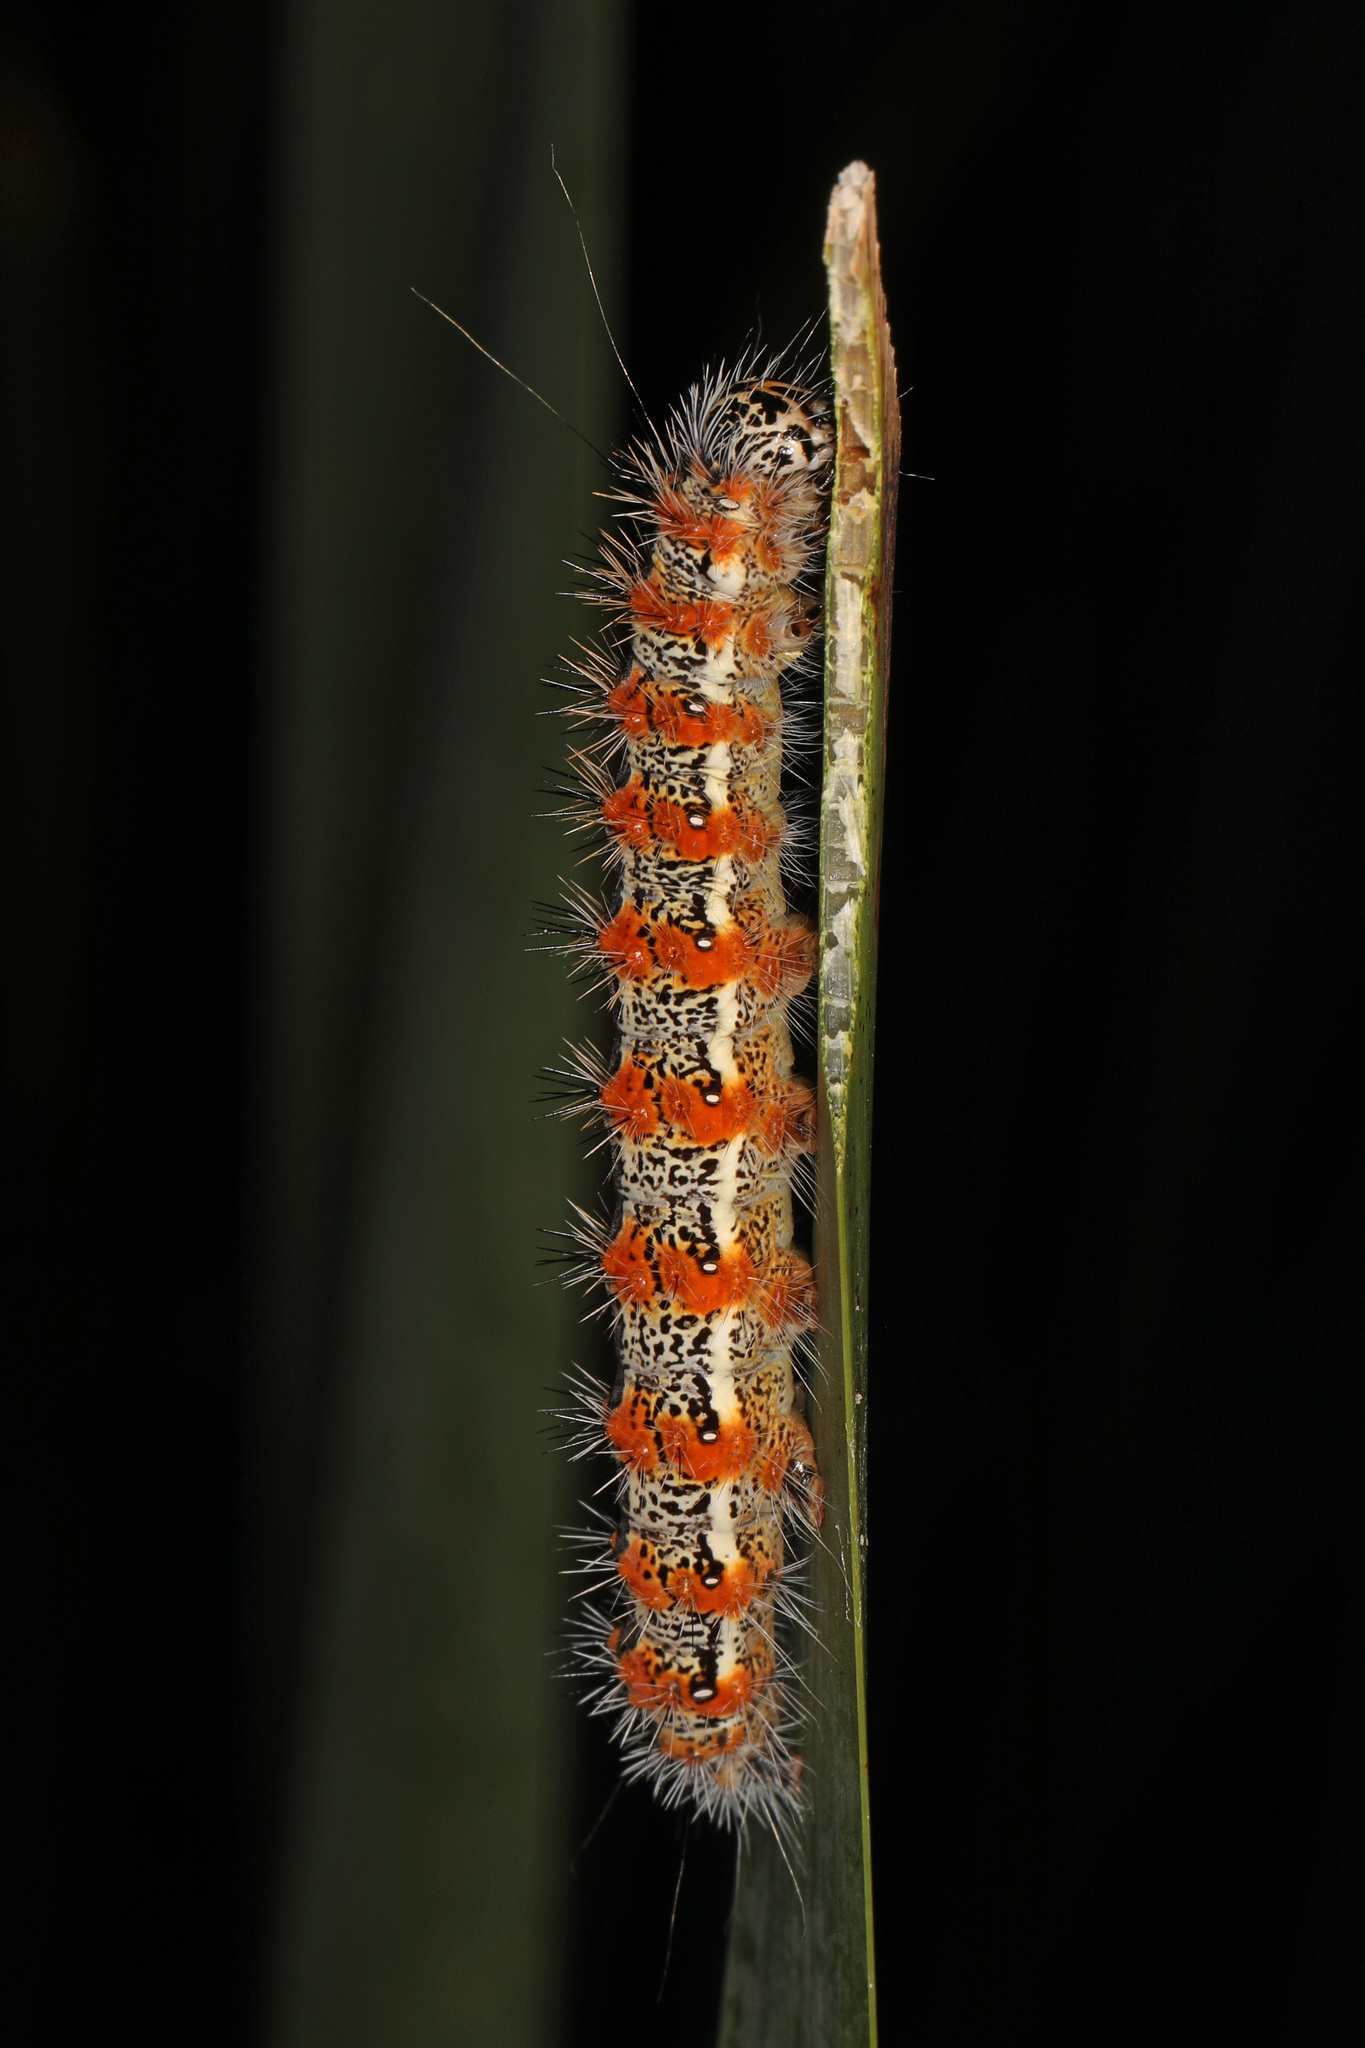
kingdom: Animalia
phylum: Arthropoda
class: Insecta
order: Lepidoptera
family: Noctuidae
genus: Acronicta
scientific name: Acronicta insularis
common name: Henry's marsh moth
